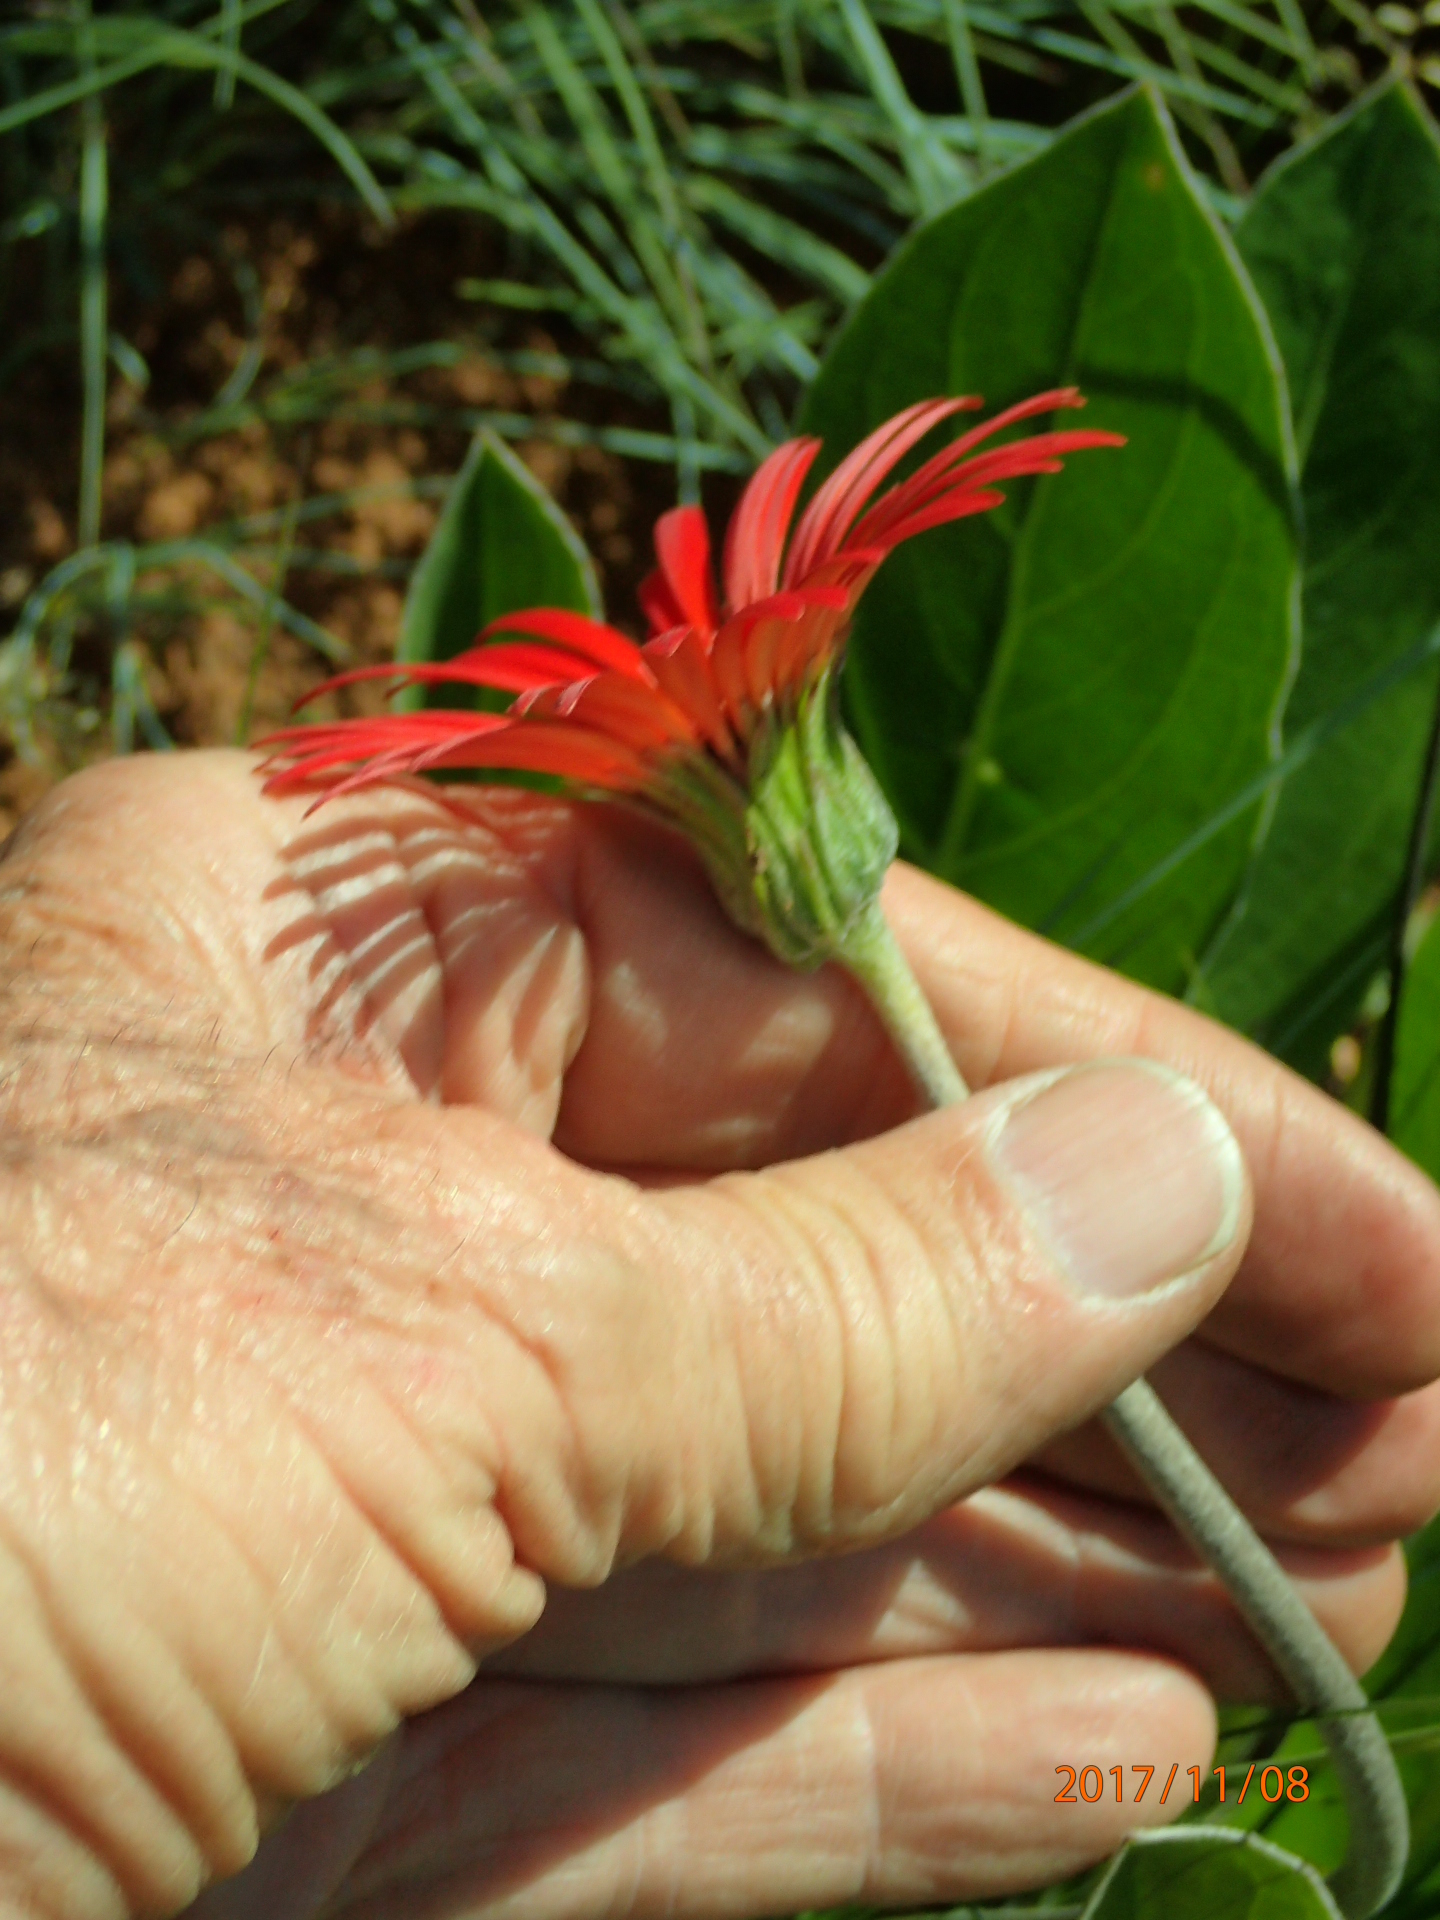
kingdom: Plantae
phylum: Tracheophyta
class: Magnoliopsida
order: Asterales
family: Asteraceae
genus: Gerbera
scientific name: Gerbera aurantiaca
